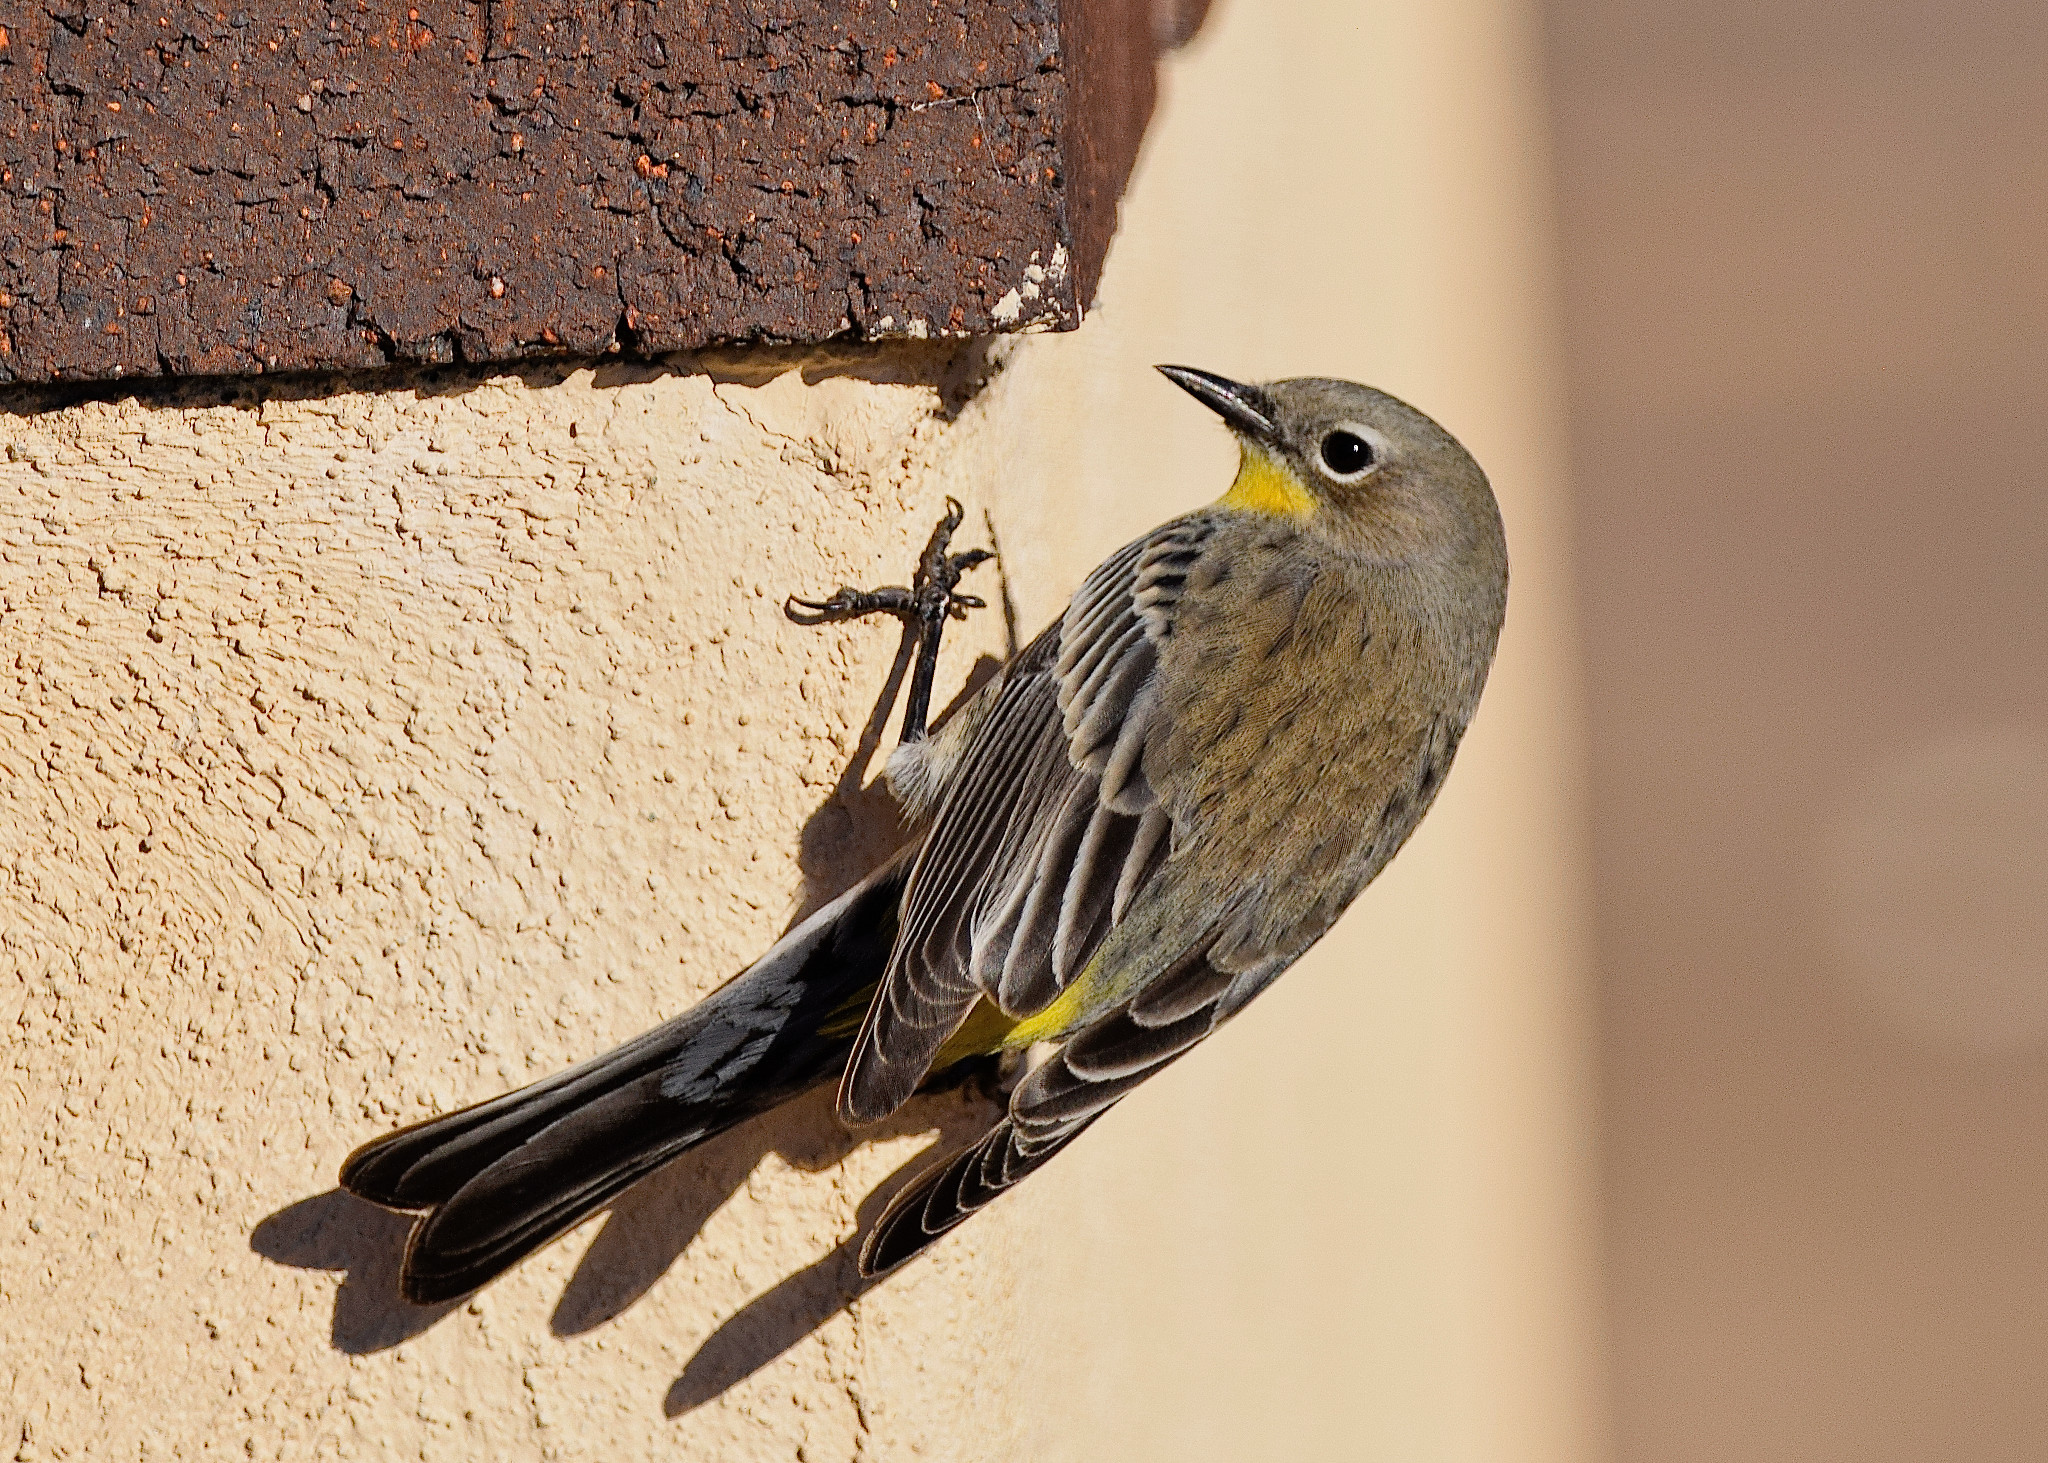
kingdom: Animalia
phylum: Chordata
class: Aves
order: Passeriformes
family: Parulidae
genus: Setophaga
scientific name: Setophaga coronata
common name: Myrtle warbler
